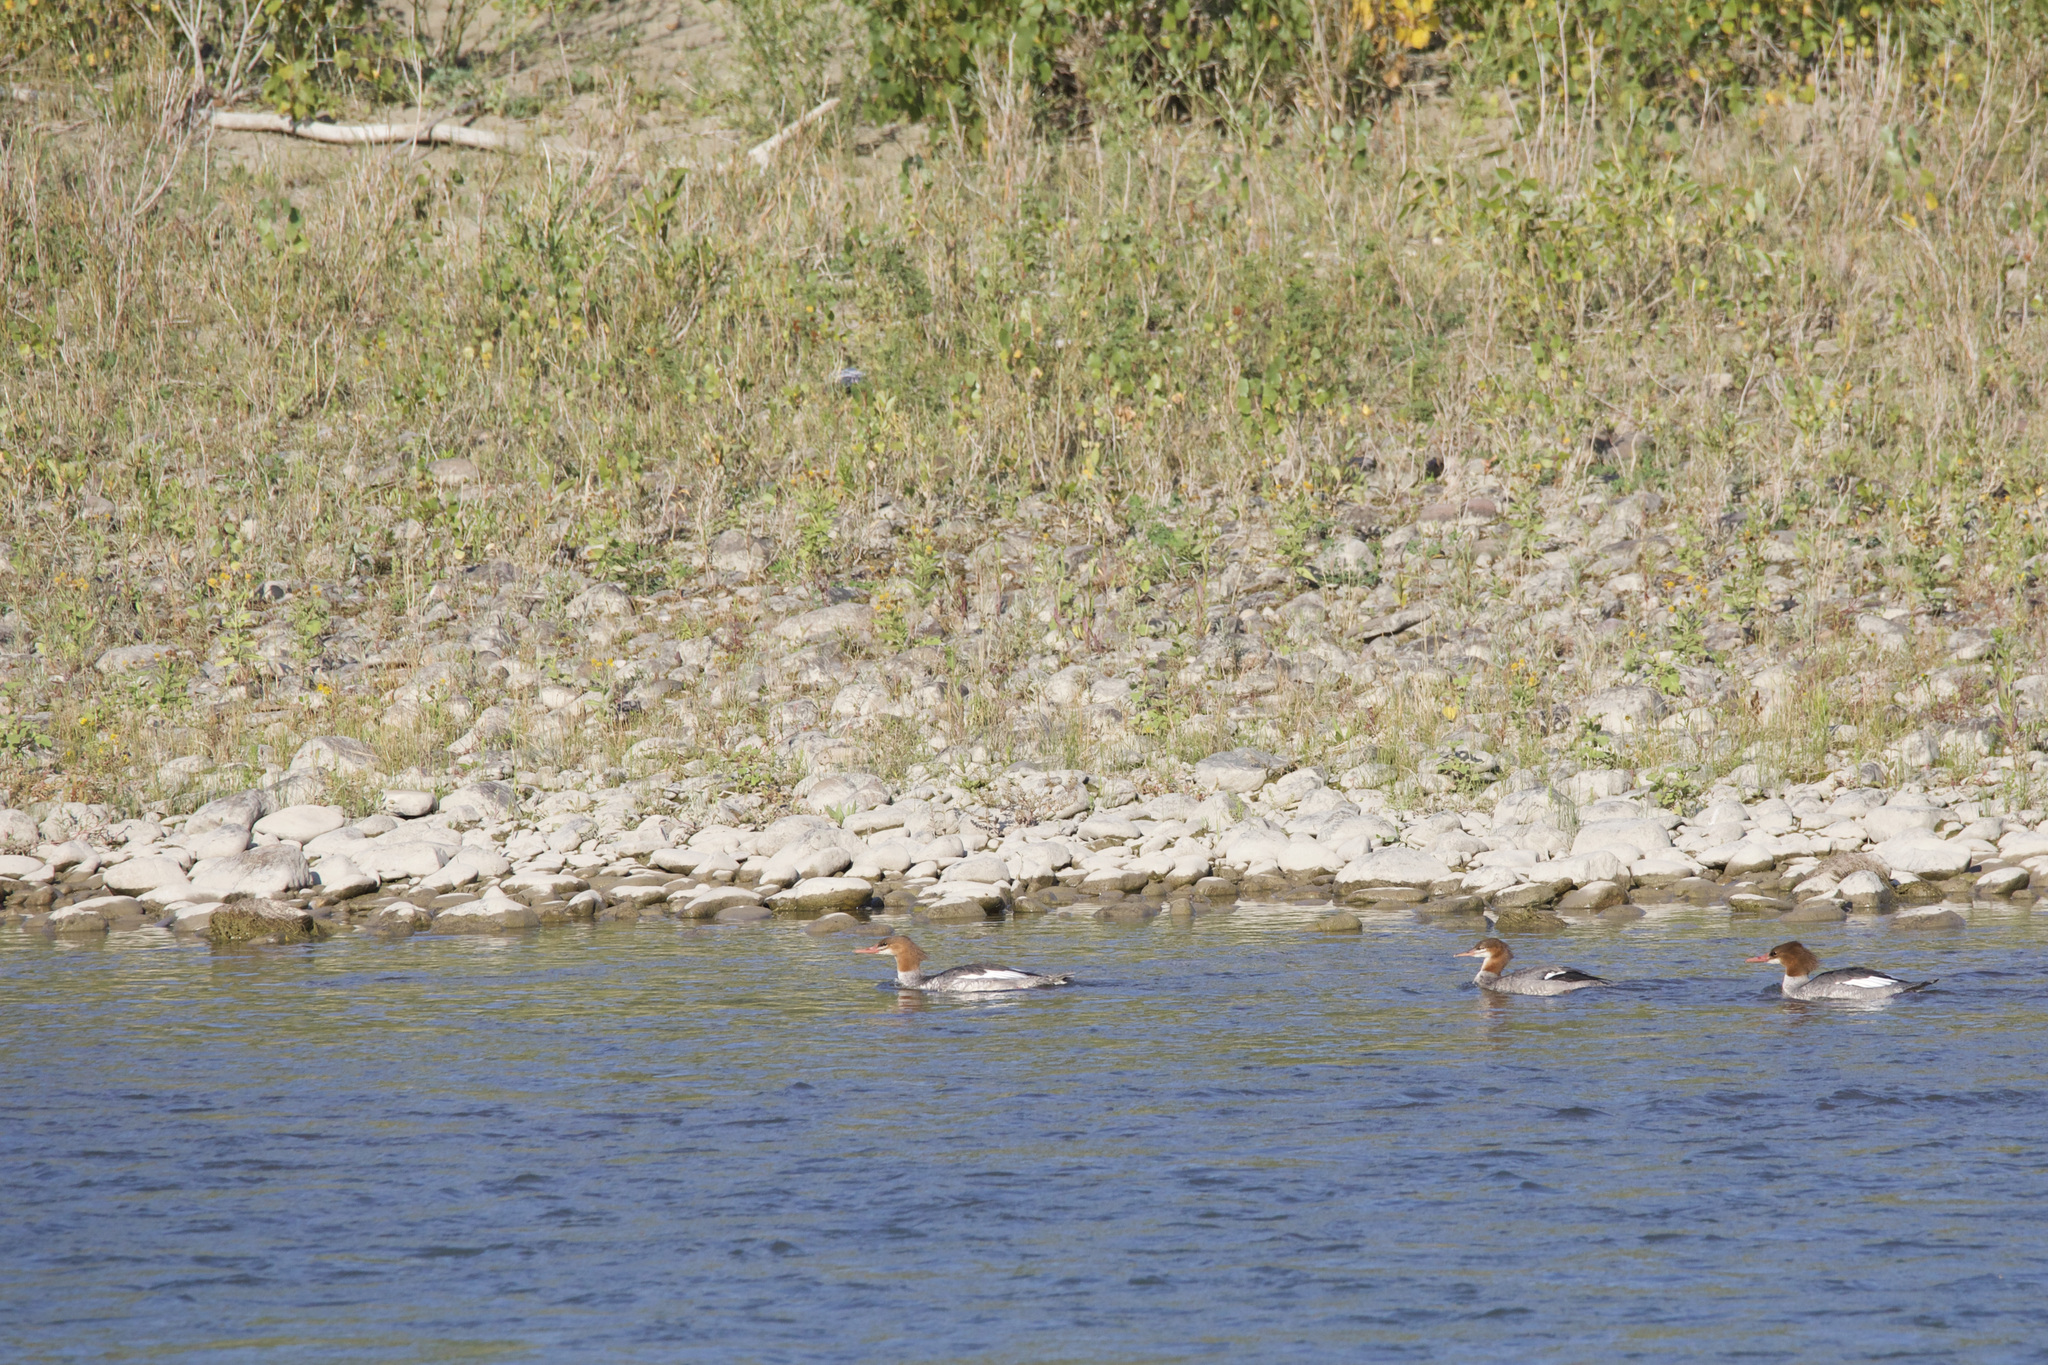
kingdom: Animalia
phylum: Chordata
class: Aves
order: Anseriformes
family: Anatidae
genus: Mergus
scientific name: Mergus merganser
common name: Common merganser
